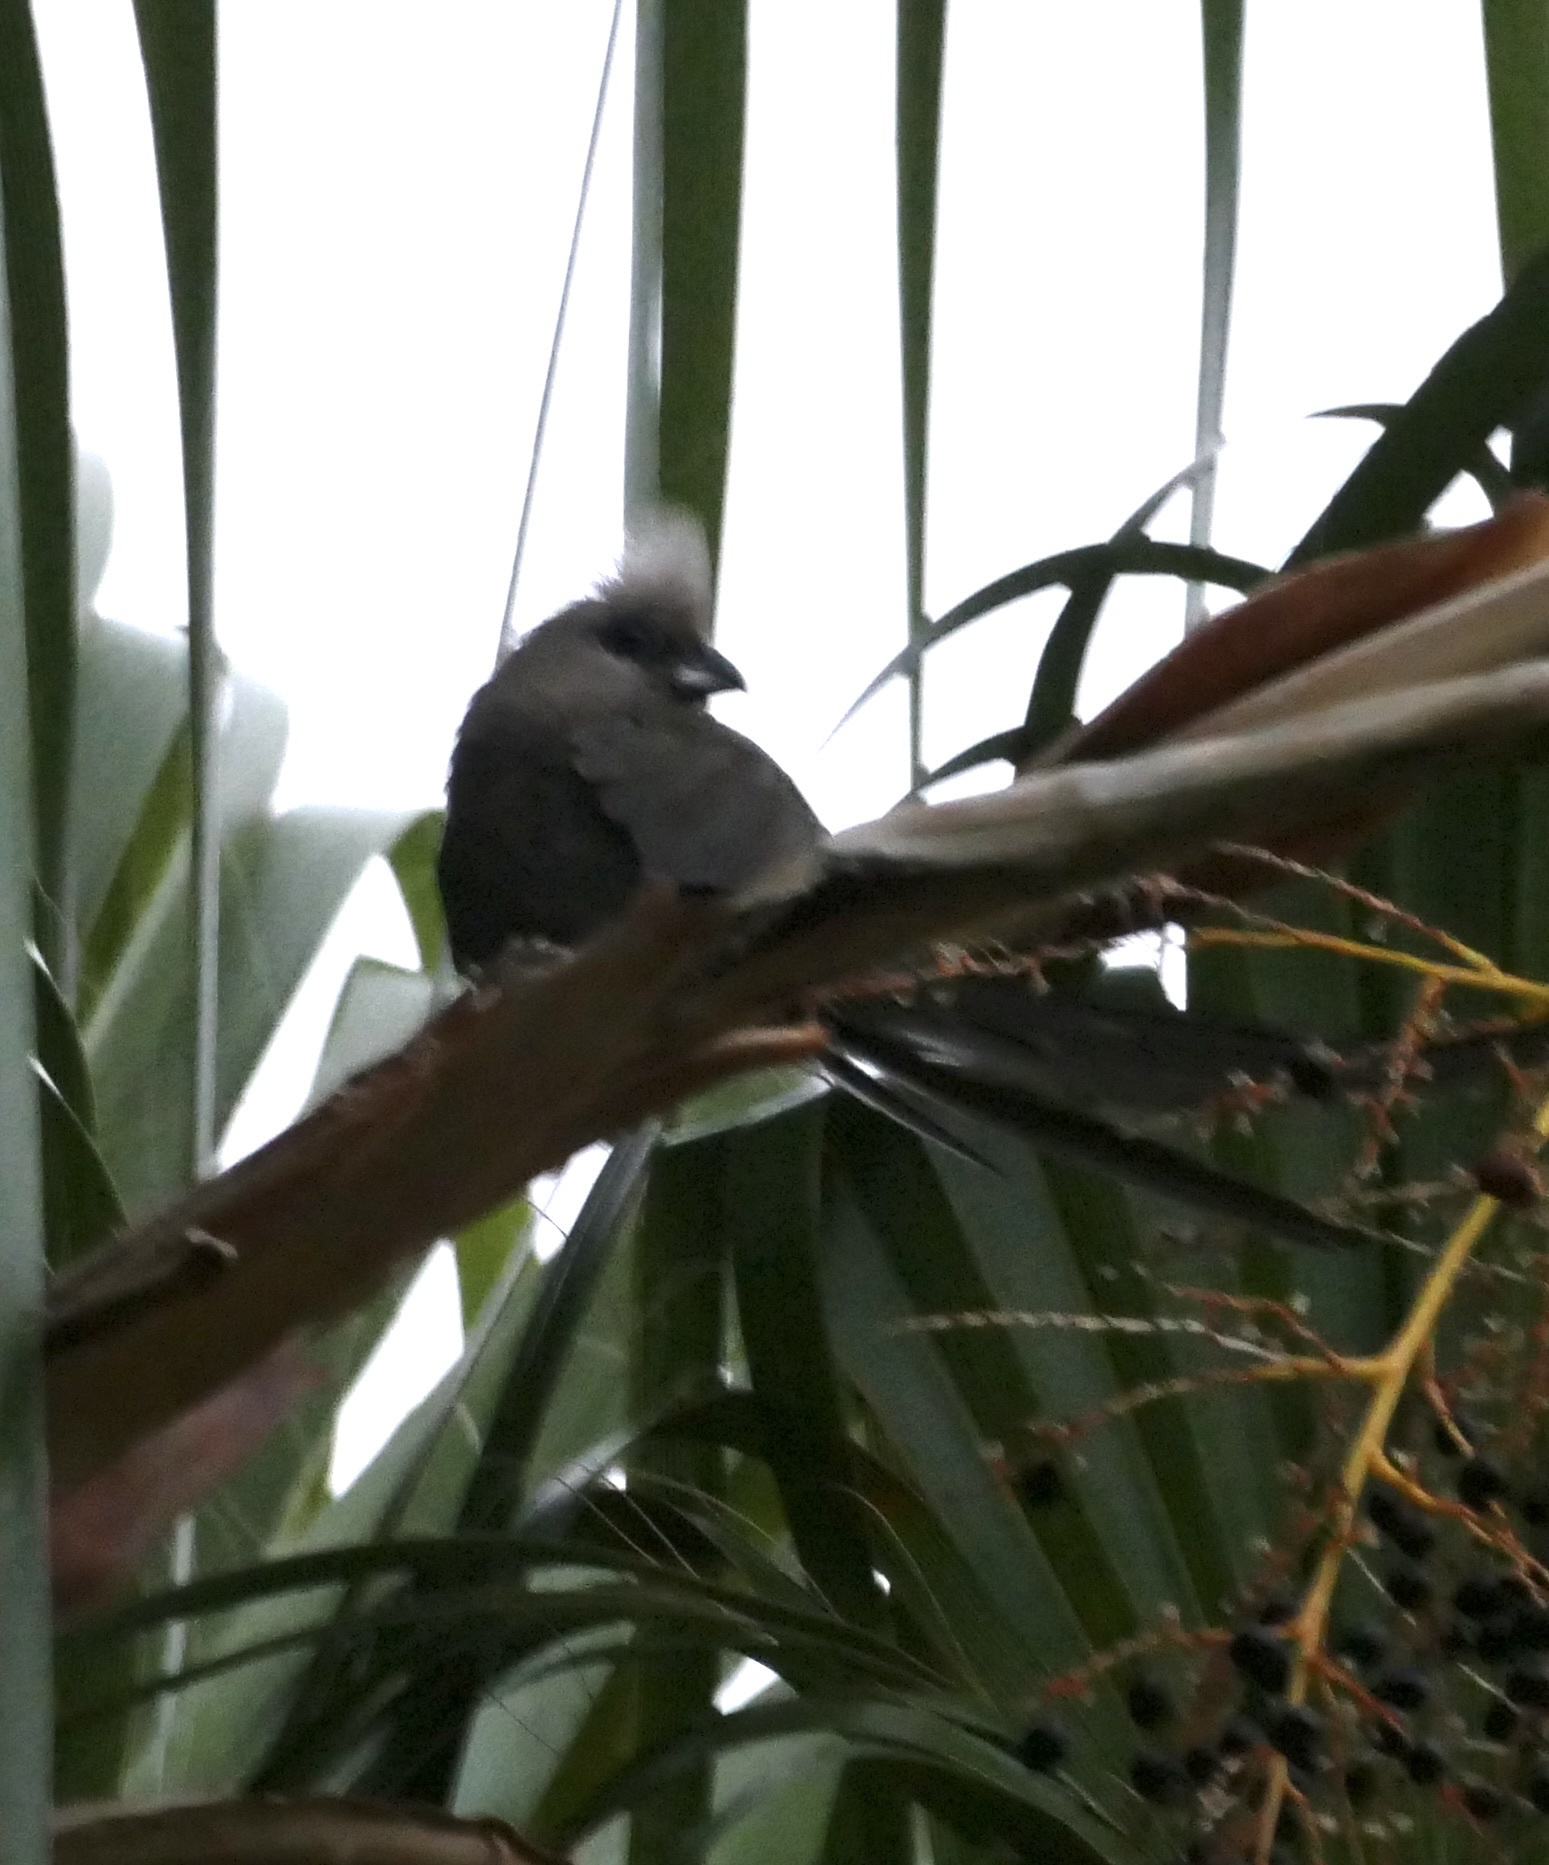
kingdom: Animalia
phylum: Chordata
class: Aves
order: Coliiformes
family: Coliidae
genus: Colius
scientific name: Colius striatus
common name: Speckled mousebird
